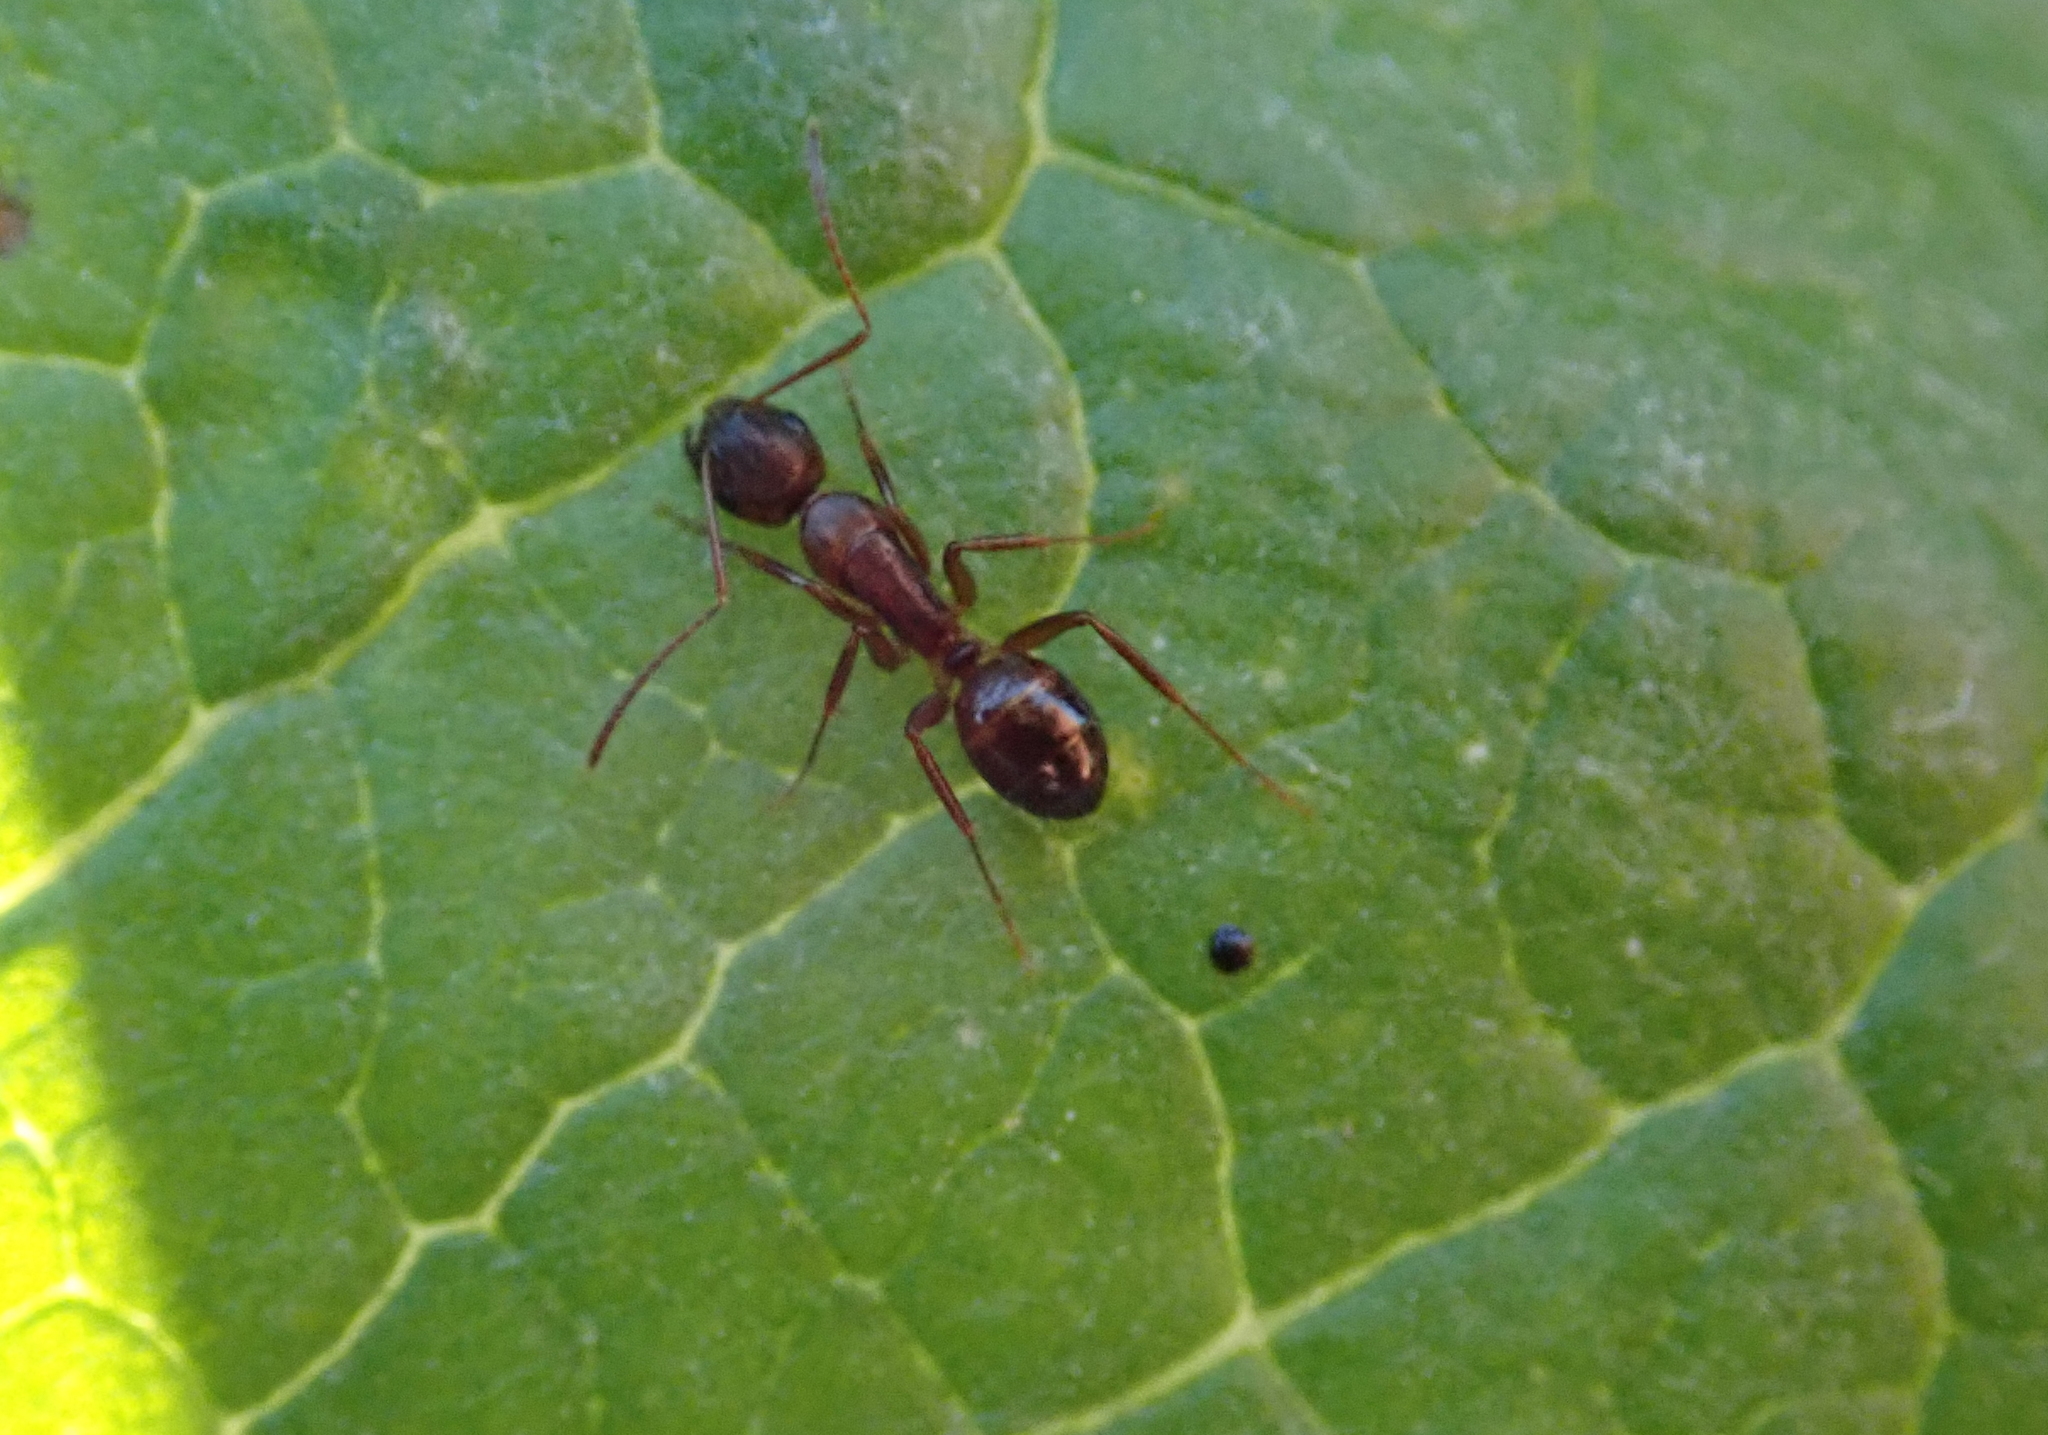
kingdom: Animalia
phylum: Arthropoda
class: Insecta
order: Hymenoptera
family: Formicidae
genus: Camponotus
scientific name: Camponotus subbarbatus
